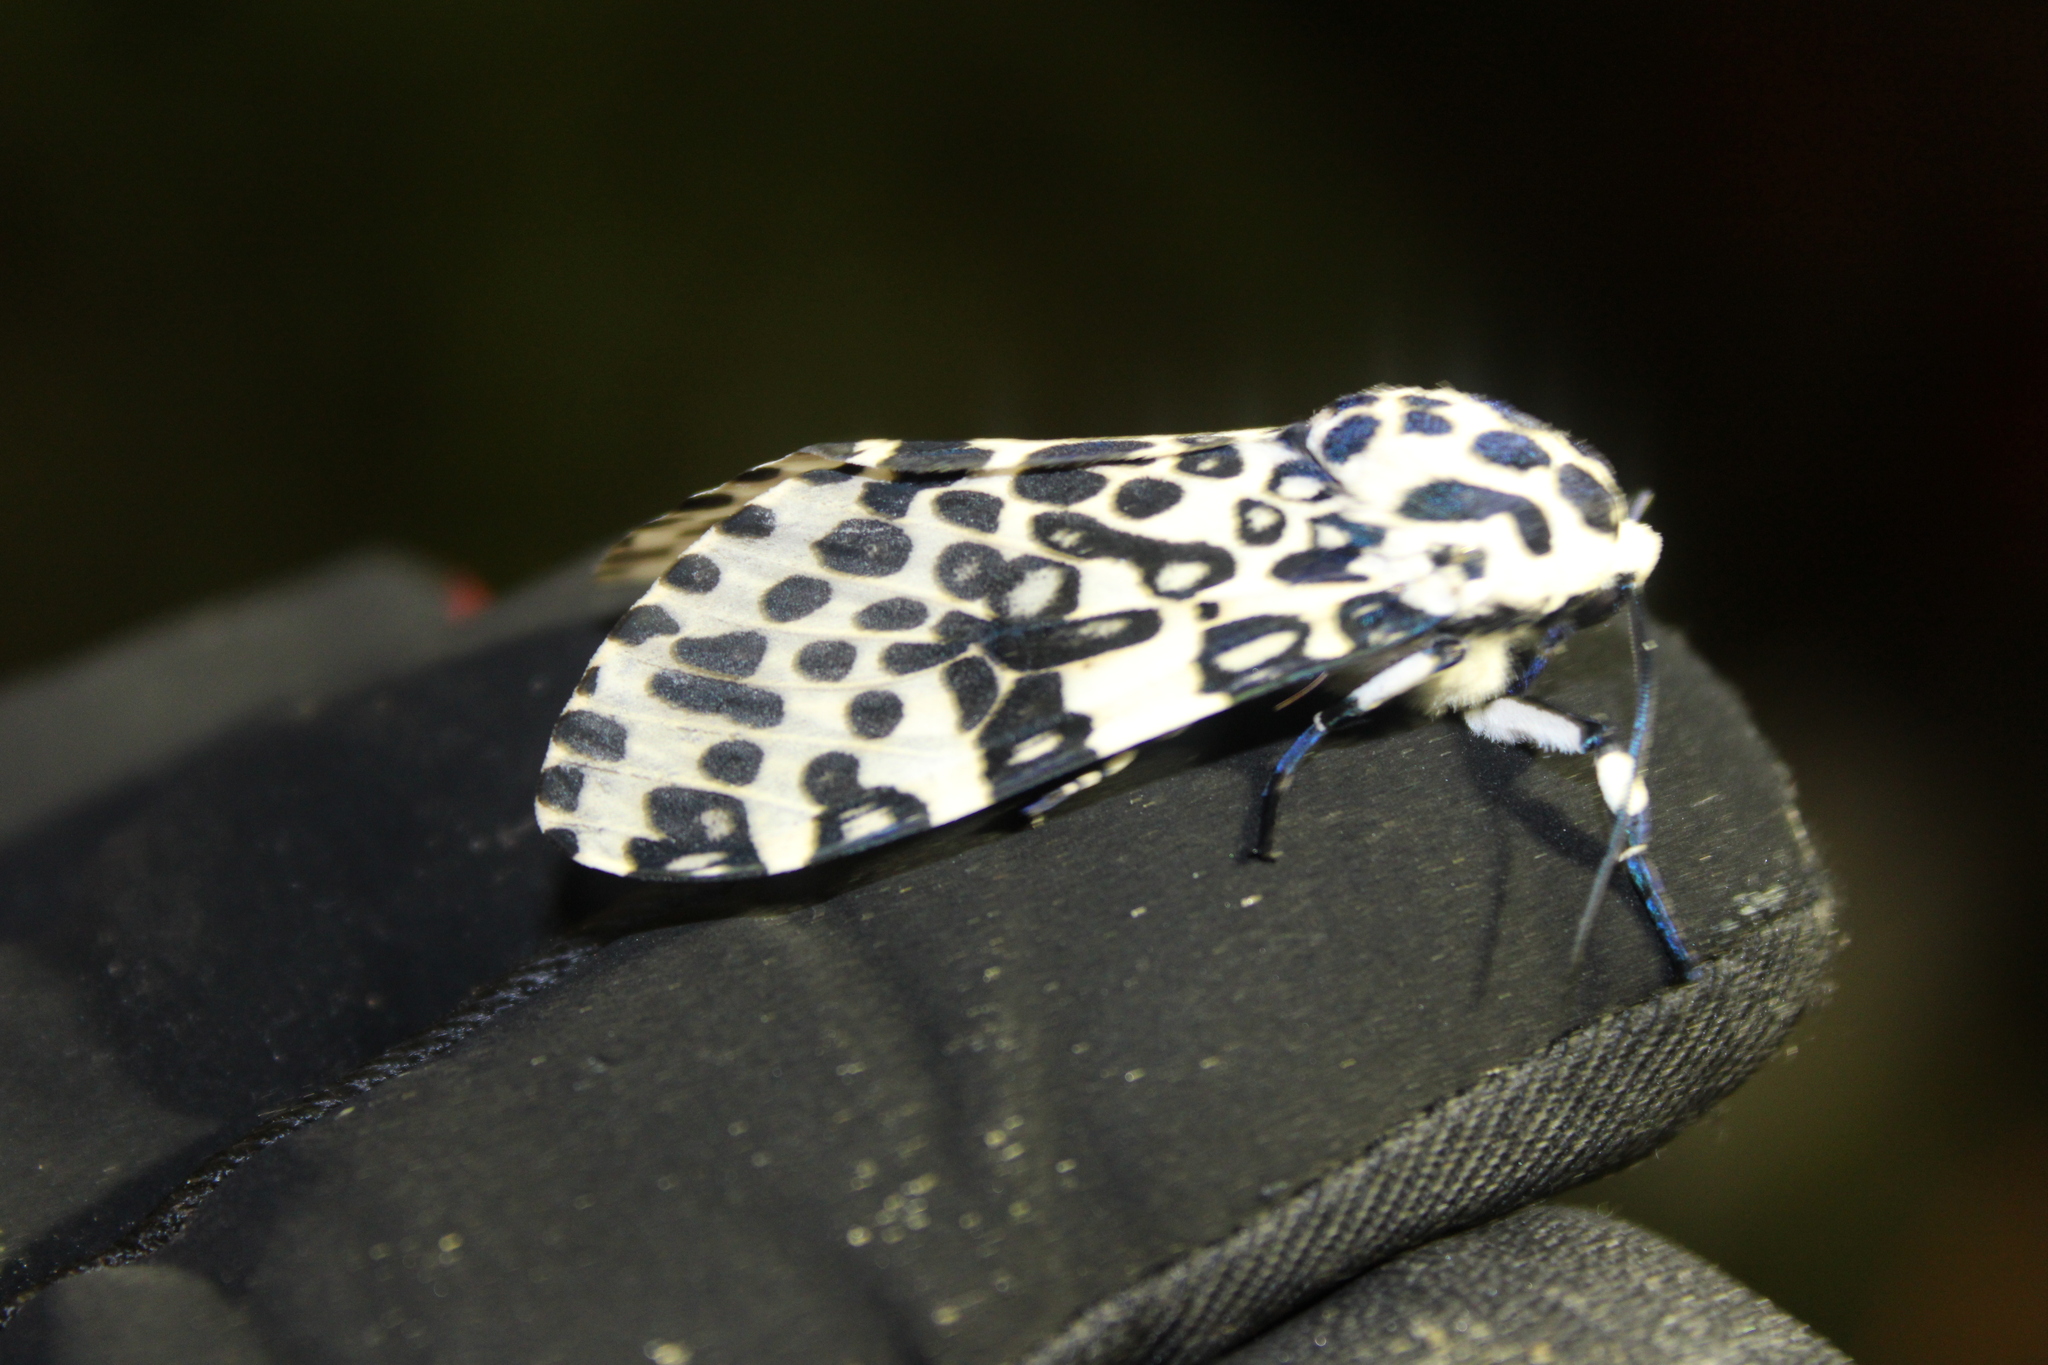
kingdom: Animalia
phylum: Arthropoda
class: Insecta
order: Lepidoptera
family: Erebidae
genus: Hypercompe
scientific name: Hypercompe scribonia
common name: Giant leopard moth
